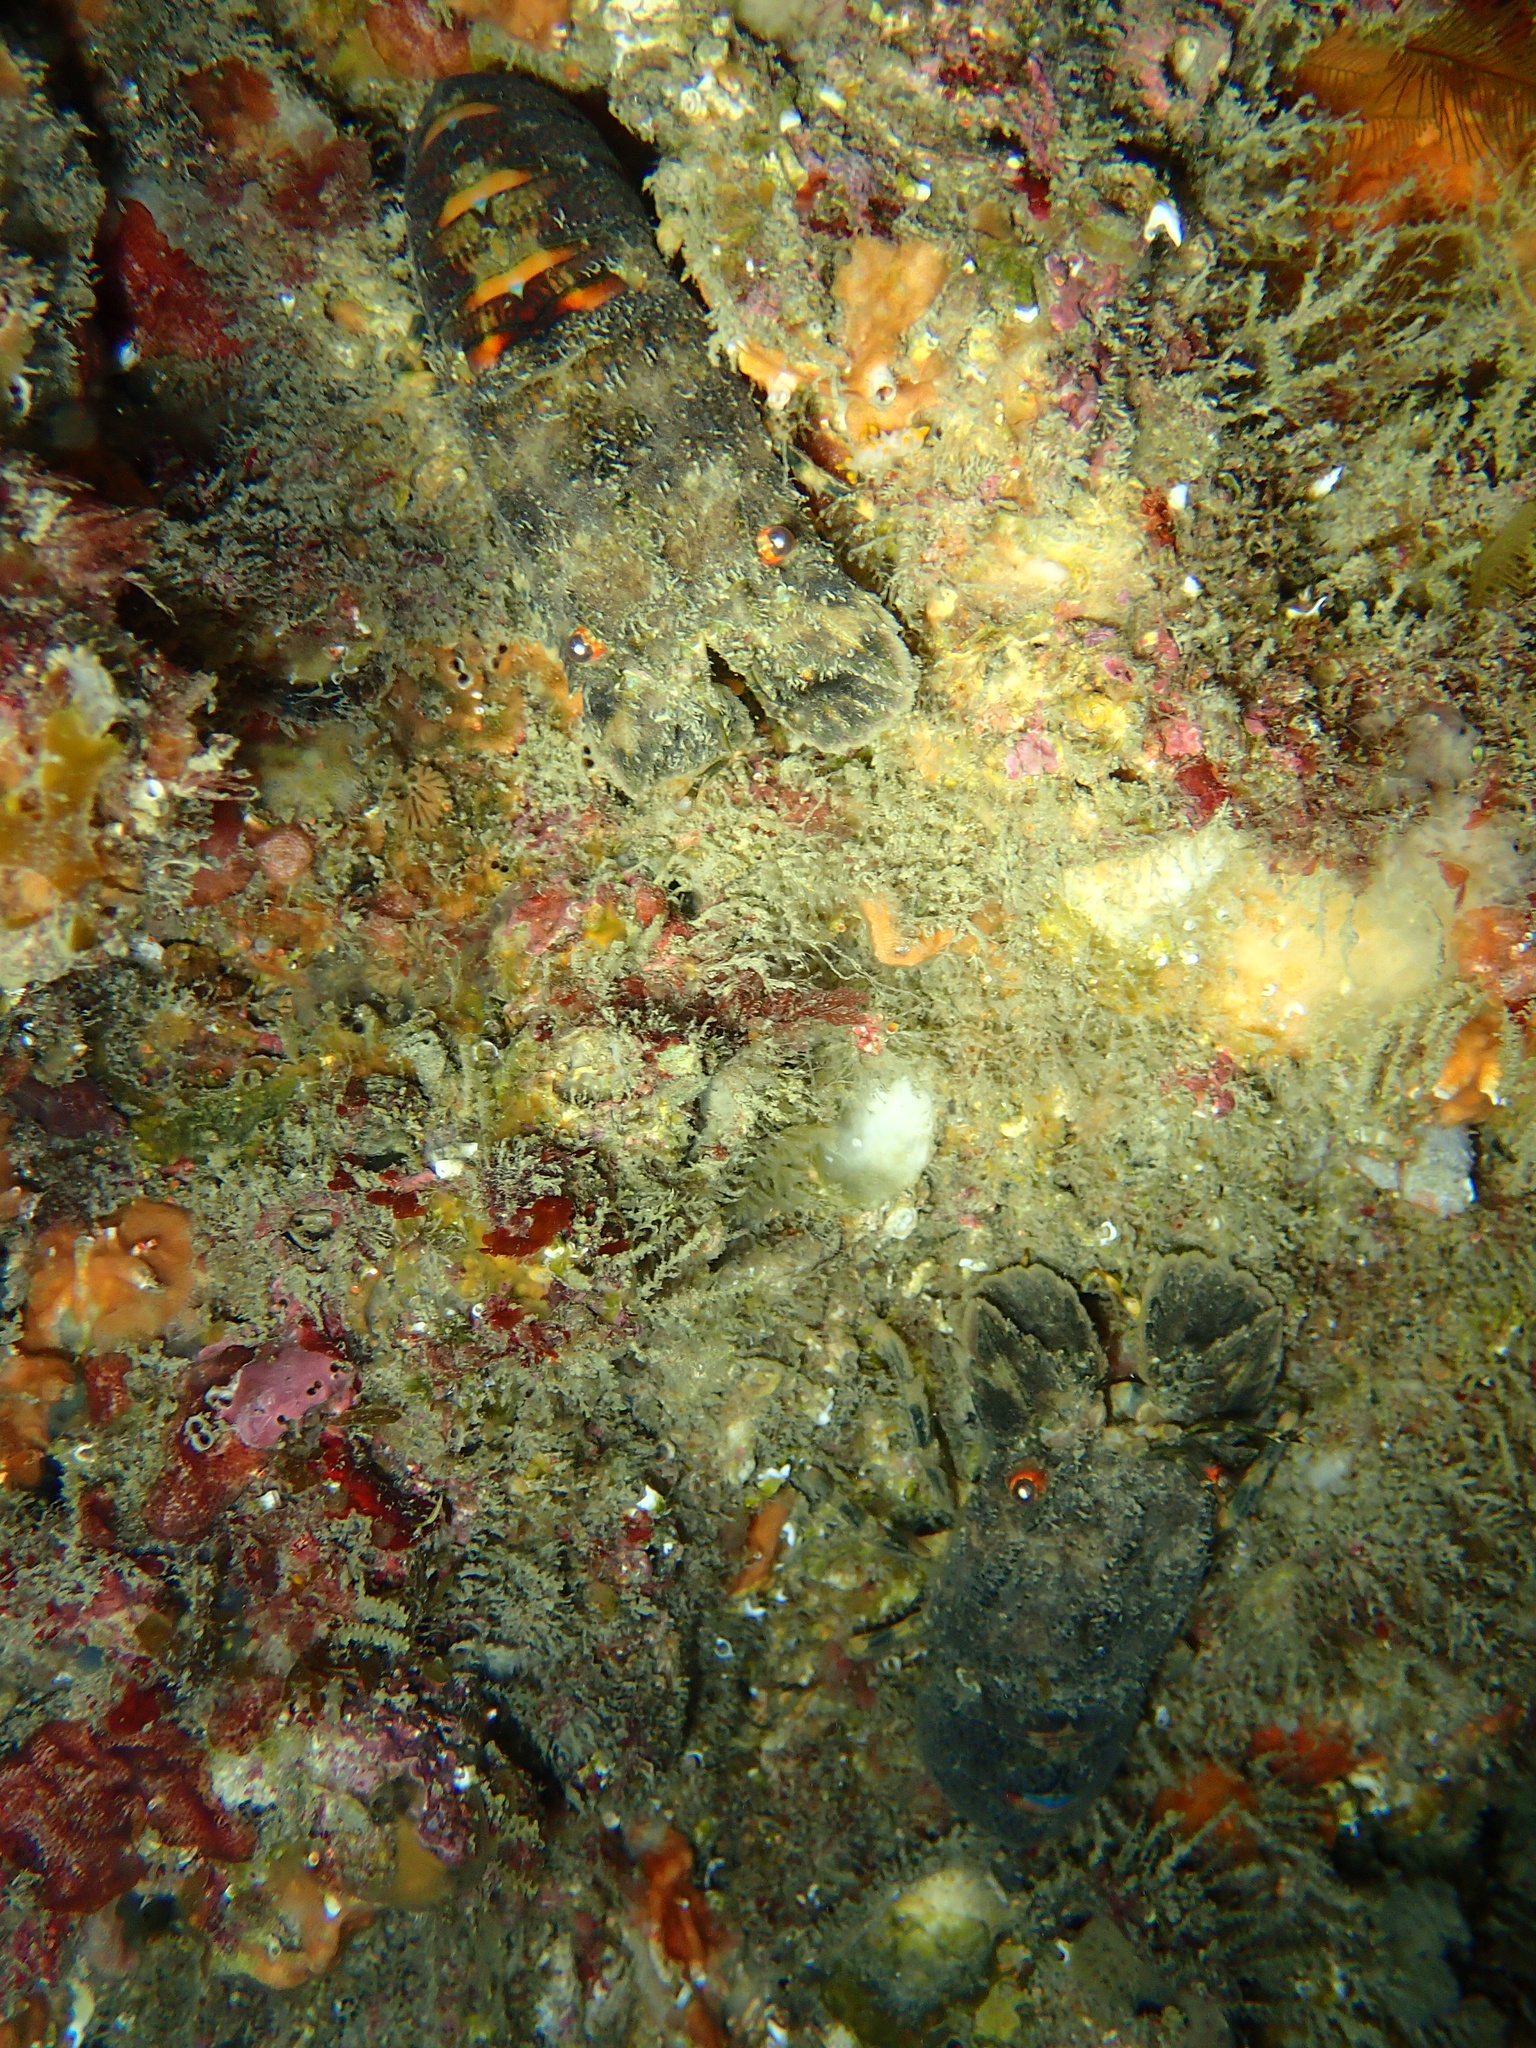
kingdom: Animalia
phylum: Arthropoda
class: Malacostraca
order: Decapoda
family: Scyllaridae
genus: Scyllarus
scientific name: Scyllarus arctus
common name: Small european locust lobster
